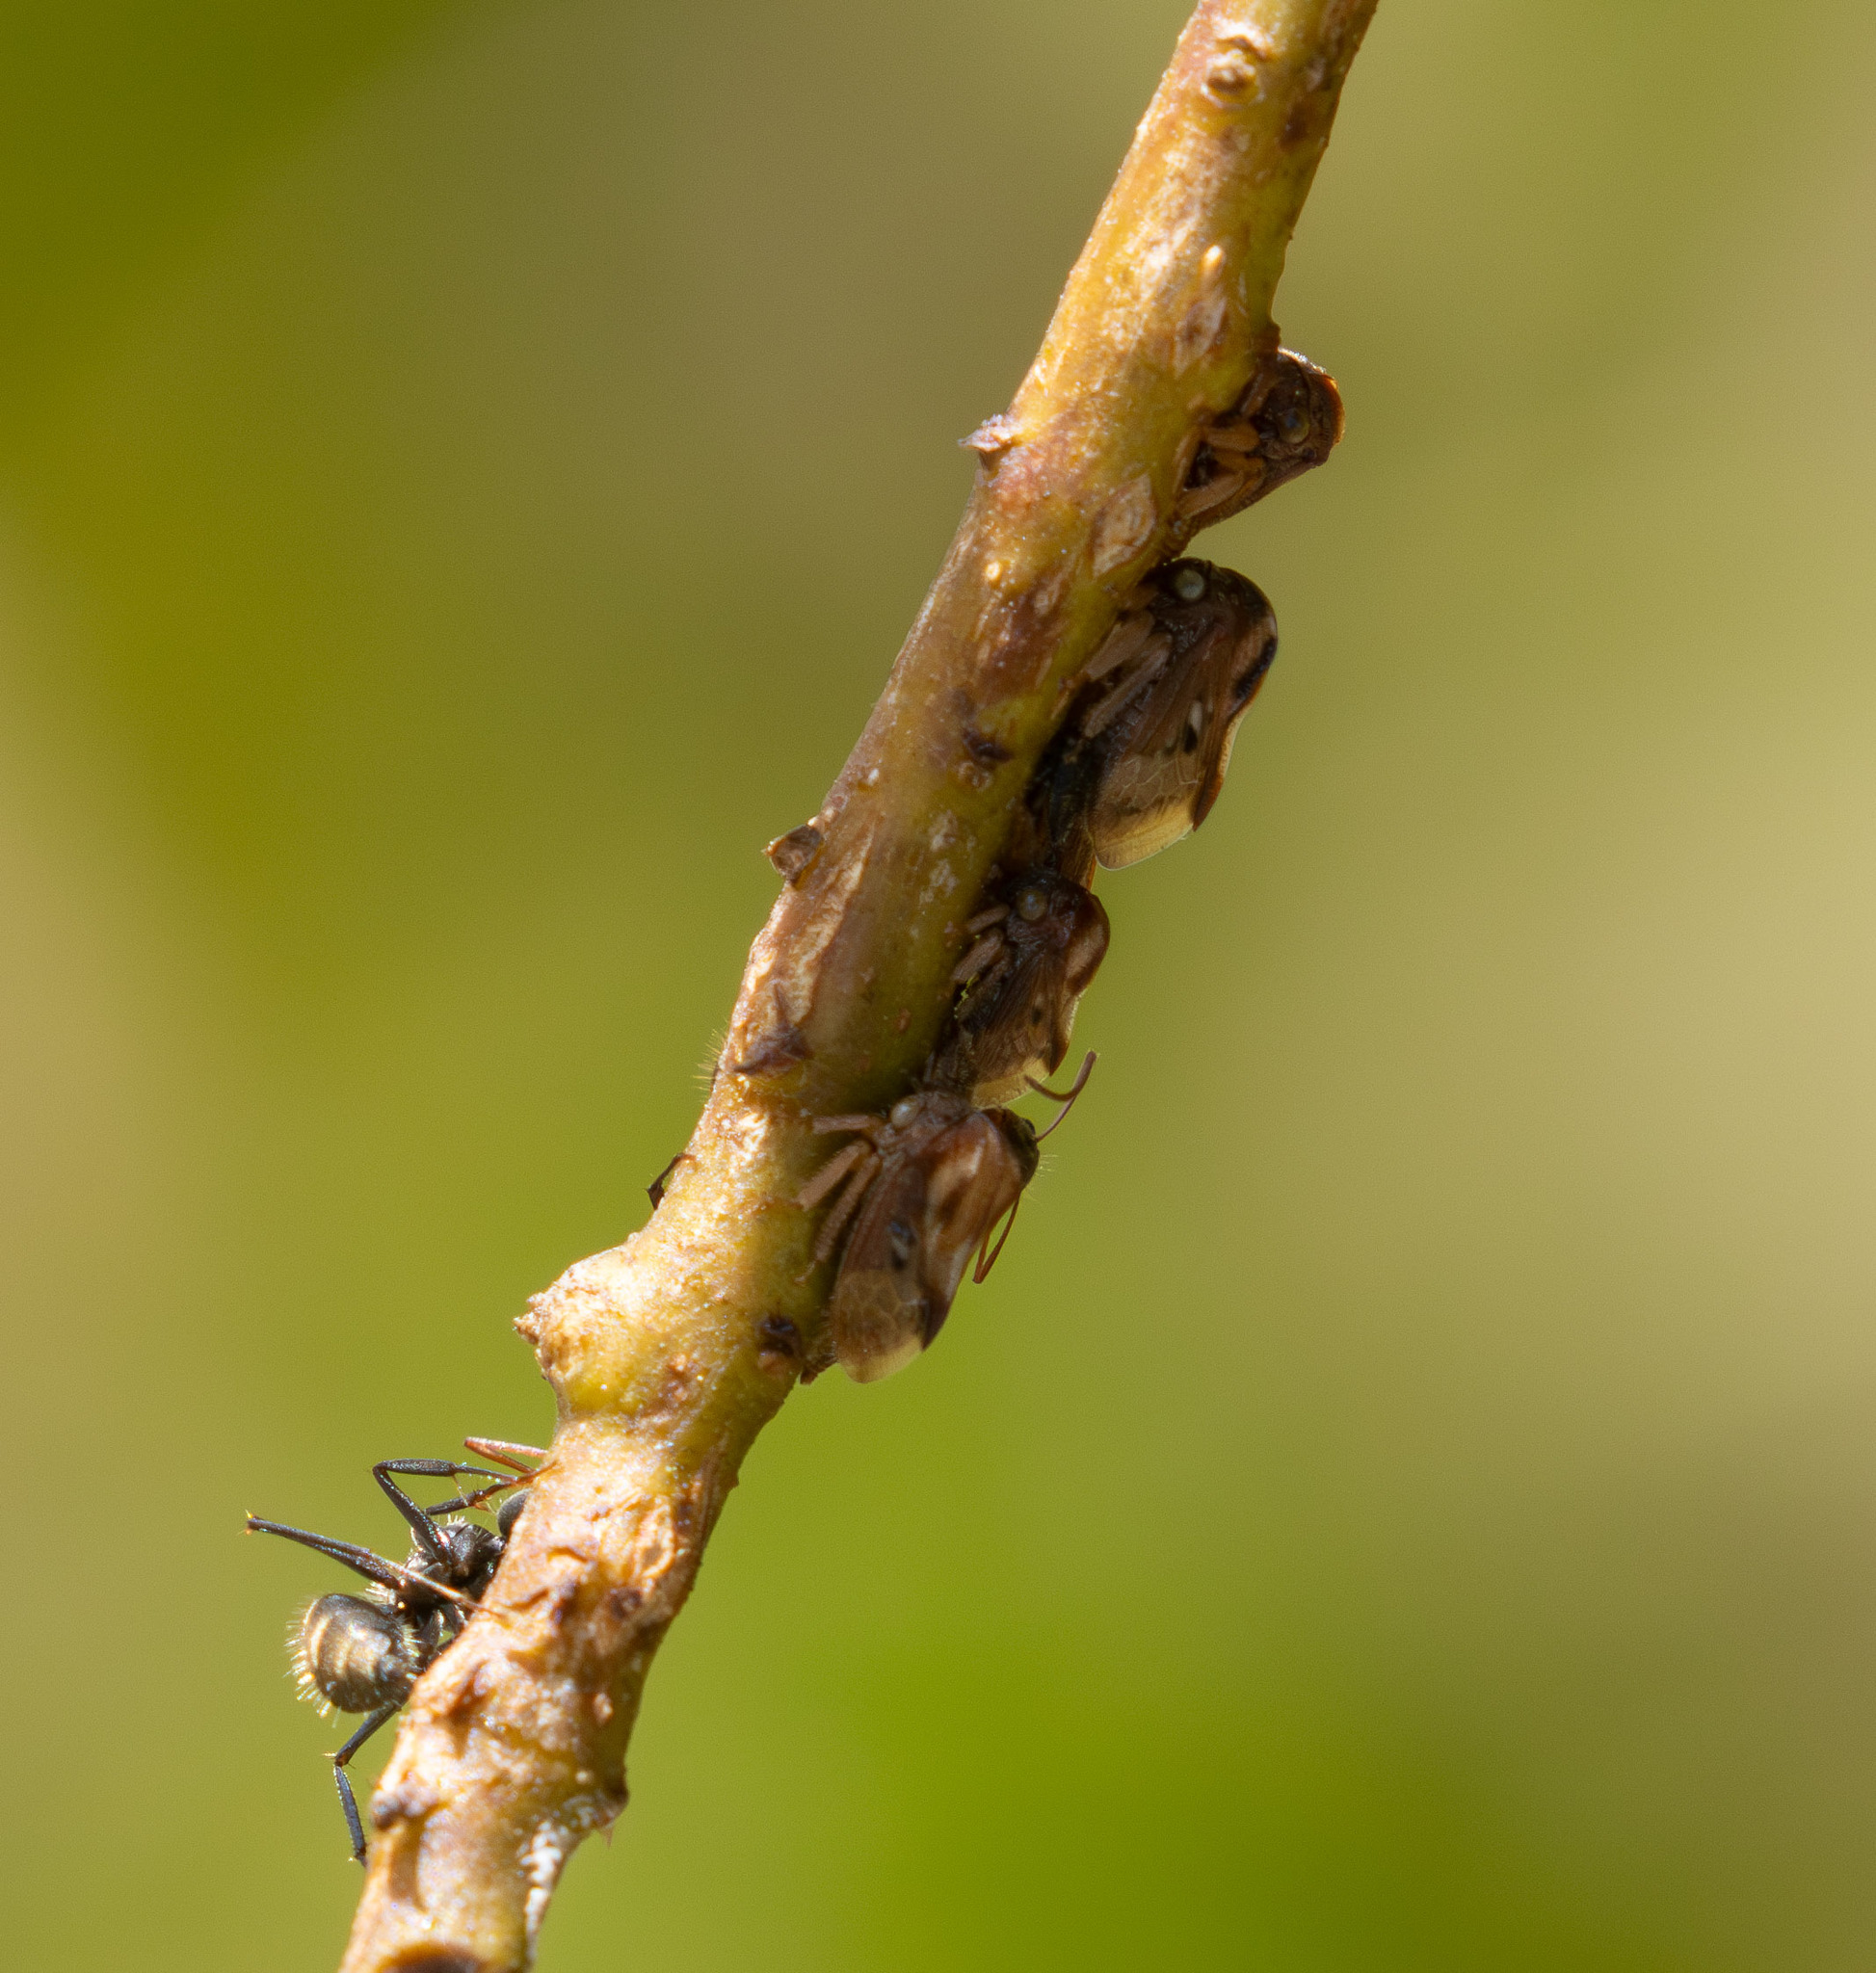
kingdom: Animalia
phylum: Arthropoda
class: Insecta
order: Hemiptera
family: Membracidae
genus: Erechtia
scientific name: Erechtia gibbosa
